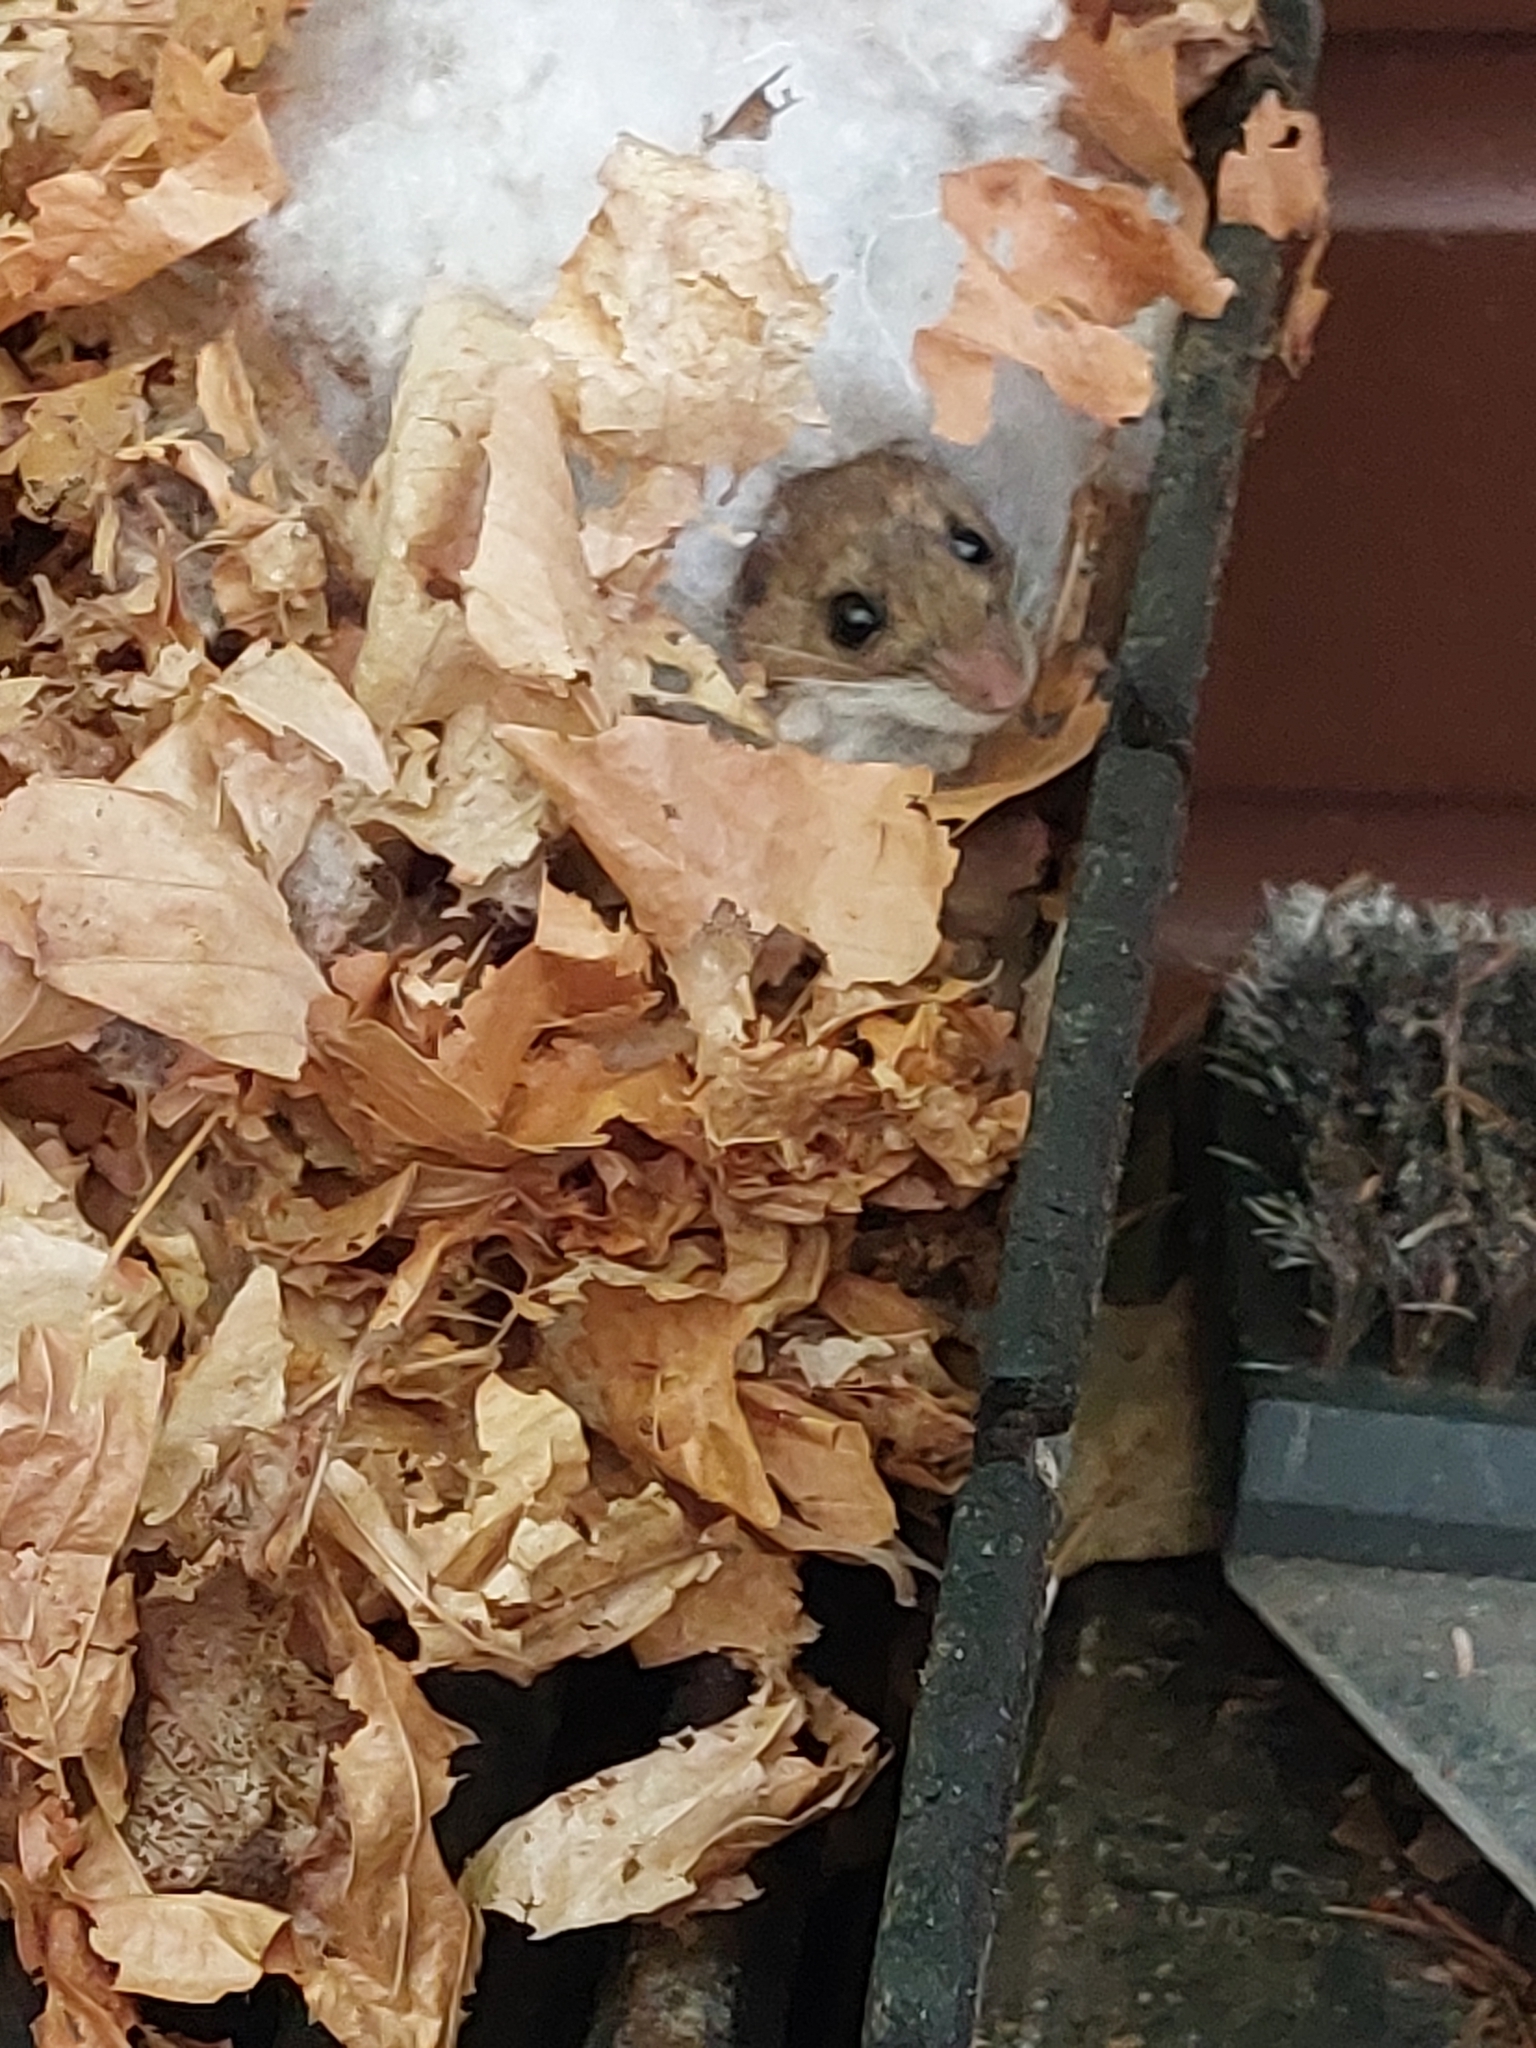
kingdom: Animalia
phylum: Chordata
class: Mammalia
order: Rodentia
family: Cricetidae
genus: Peromyscus
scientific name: Peromyscus leucopus
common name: White-footed deermouse
